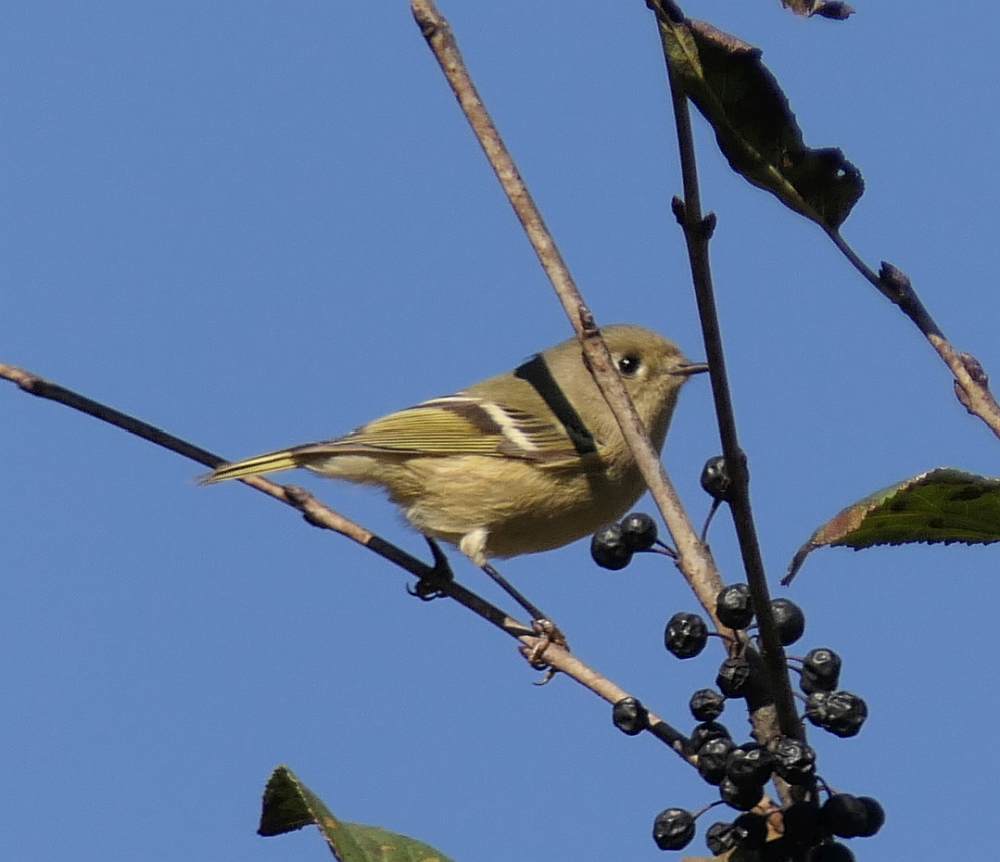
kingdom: Animalia
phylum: Chordata
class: Aves
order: Passeriformes
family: Regulidae
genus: Regulus
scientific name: Regulus calendula
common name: Ruby-crowned kinglet
